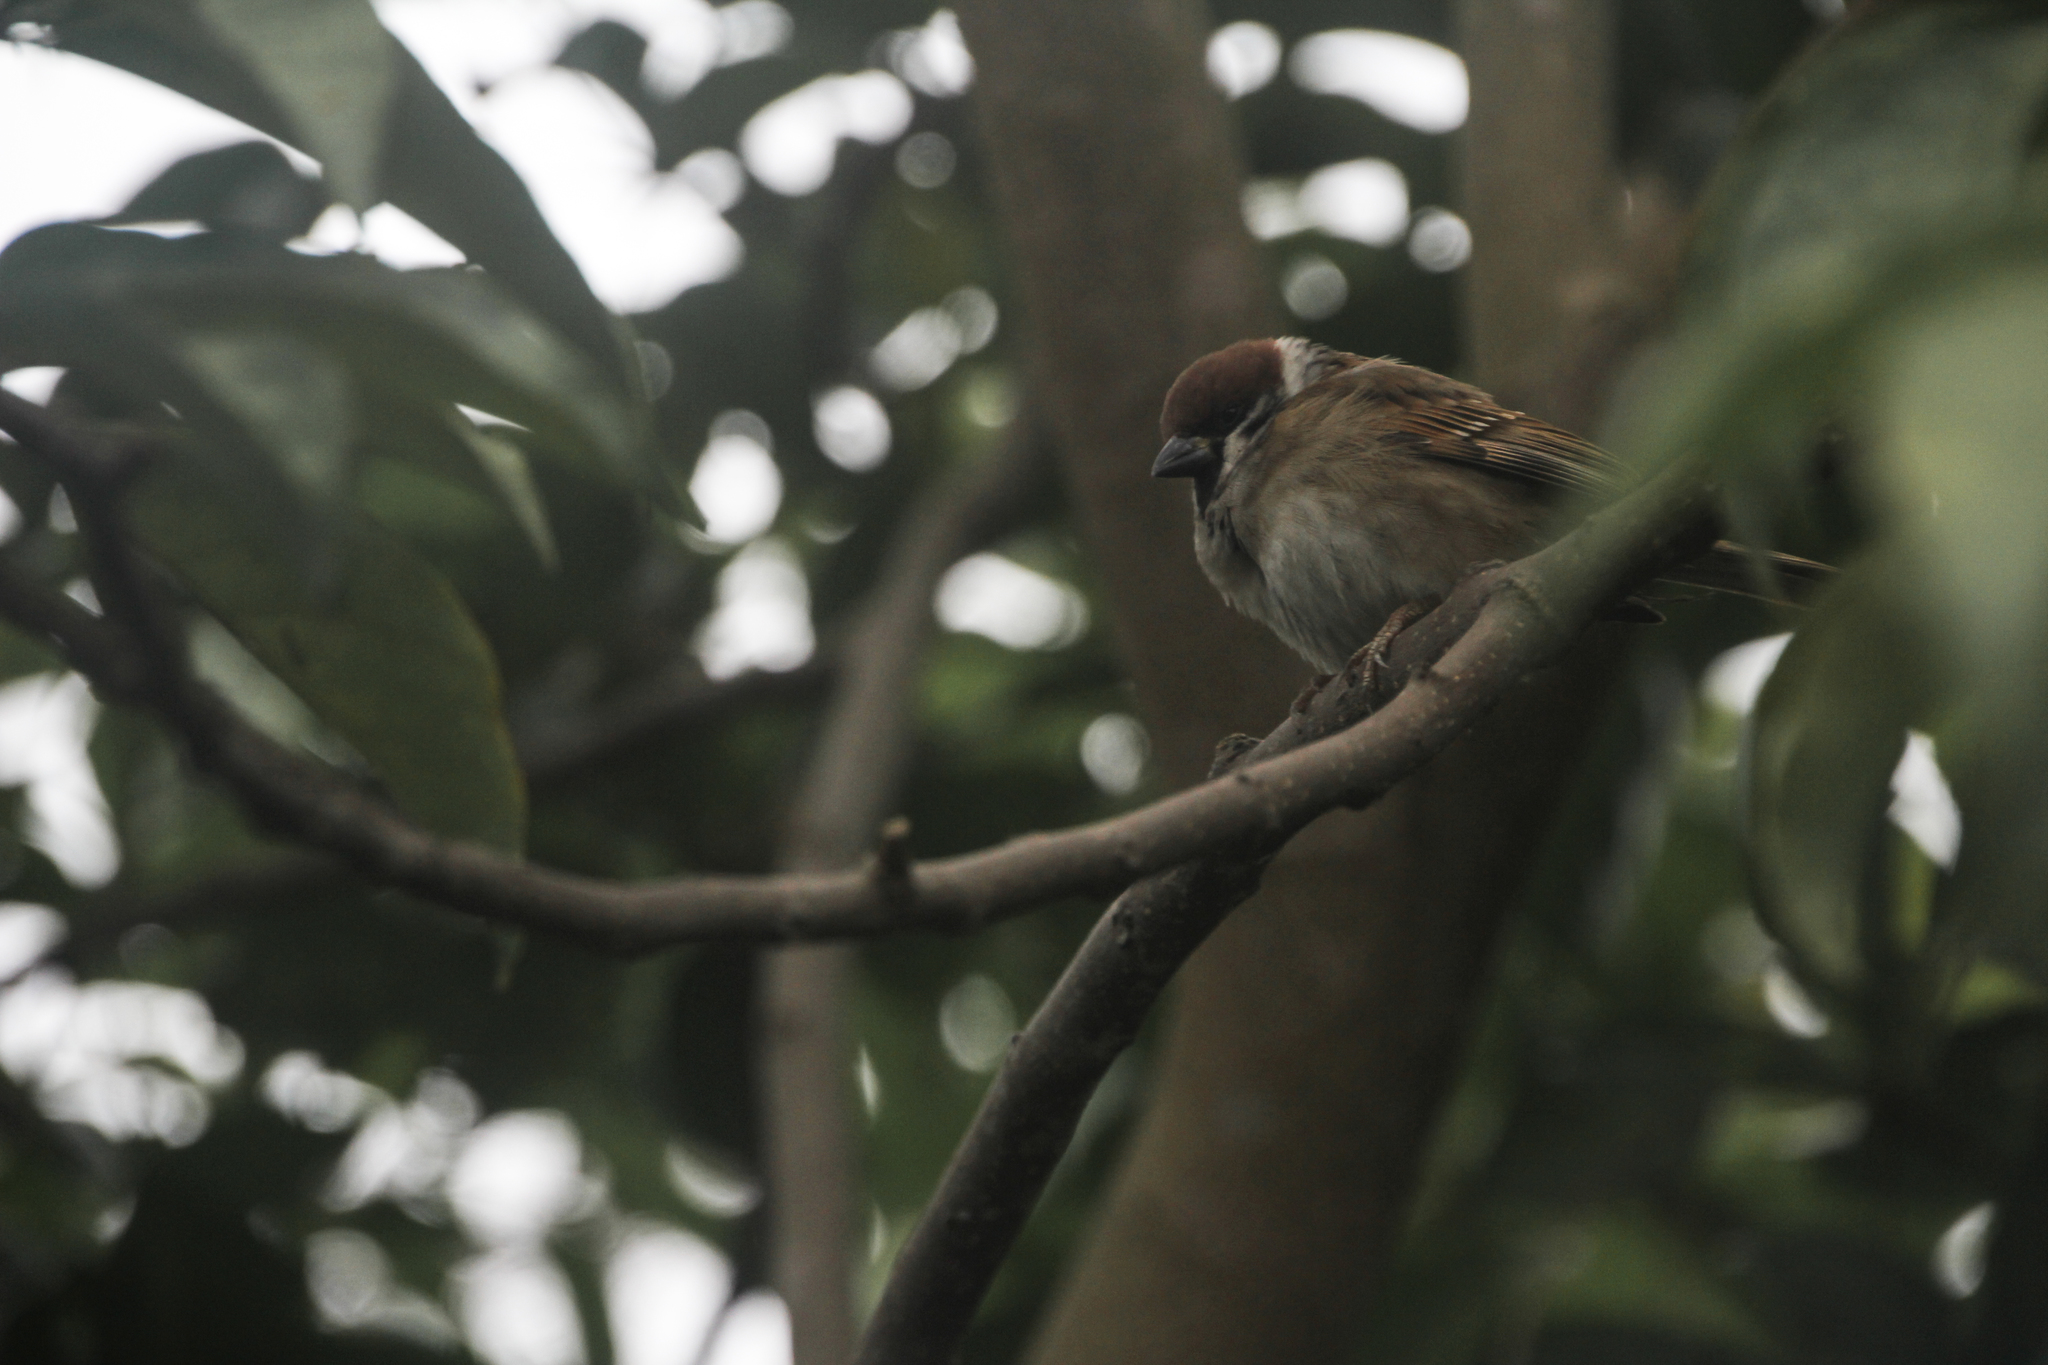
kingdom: Animalia
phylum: Chordata
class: Aves
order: Passeriformes
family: Passeridae
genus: Passer
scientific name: Passer montanus
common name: Eurasian tree sparrow
